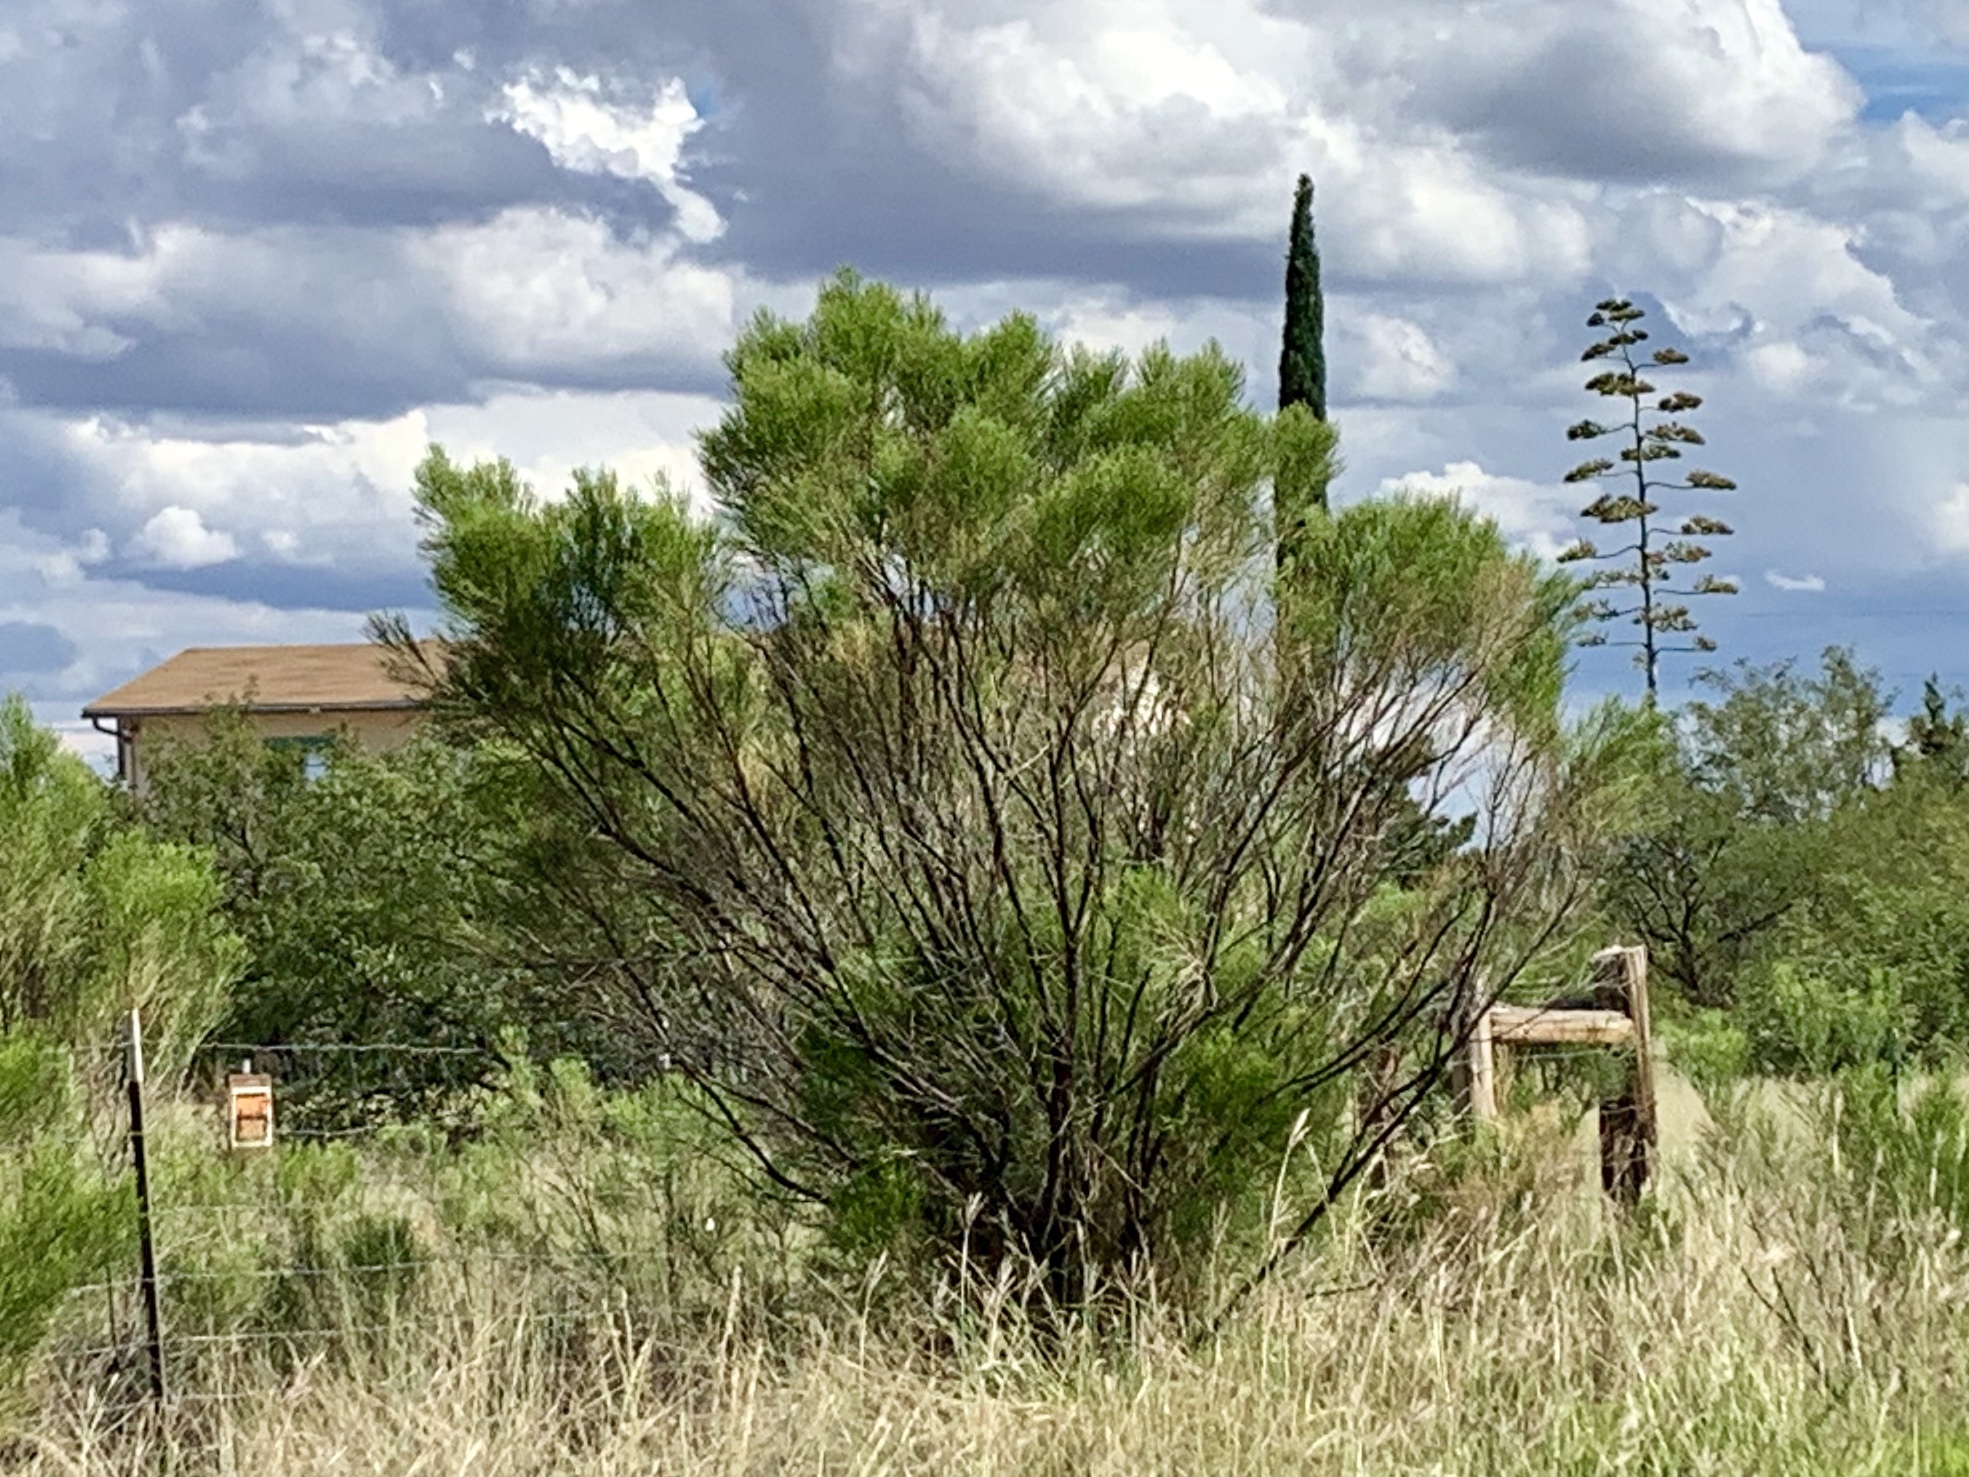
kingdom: Plantae
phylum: Tracheophyta
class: Magnoliopsida
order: Asterales
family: Asteraceae
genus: Baccharis
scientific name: Baccharis sarothroides
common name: Desert-broom
